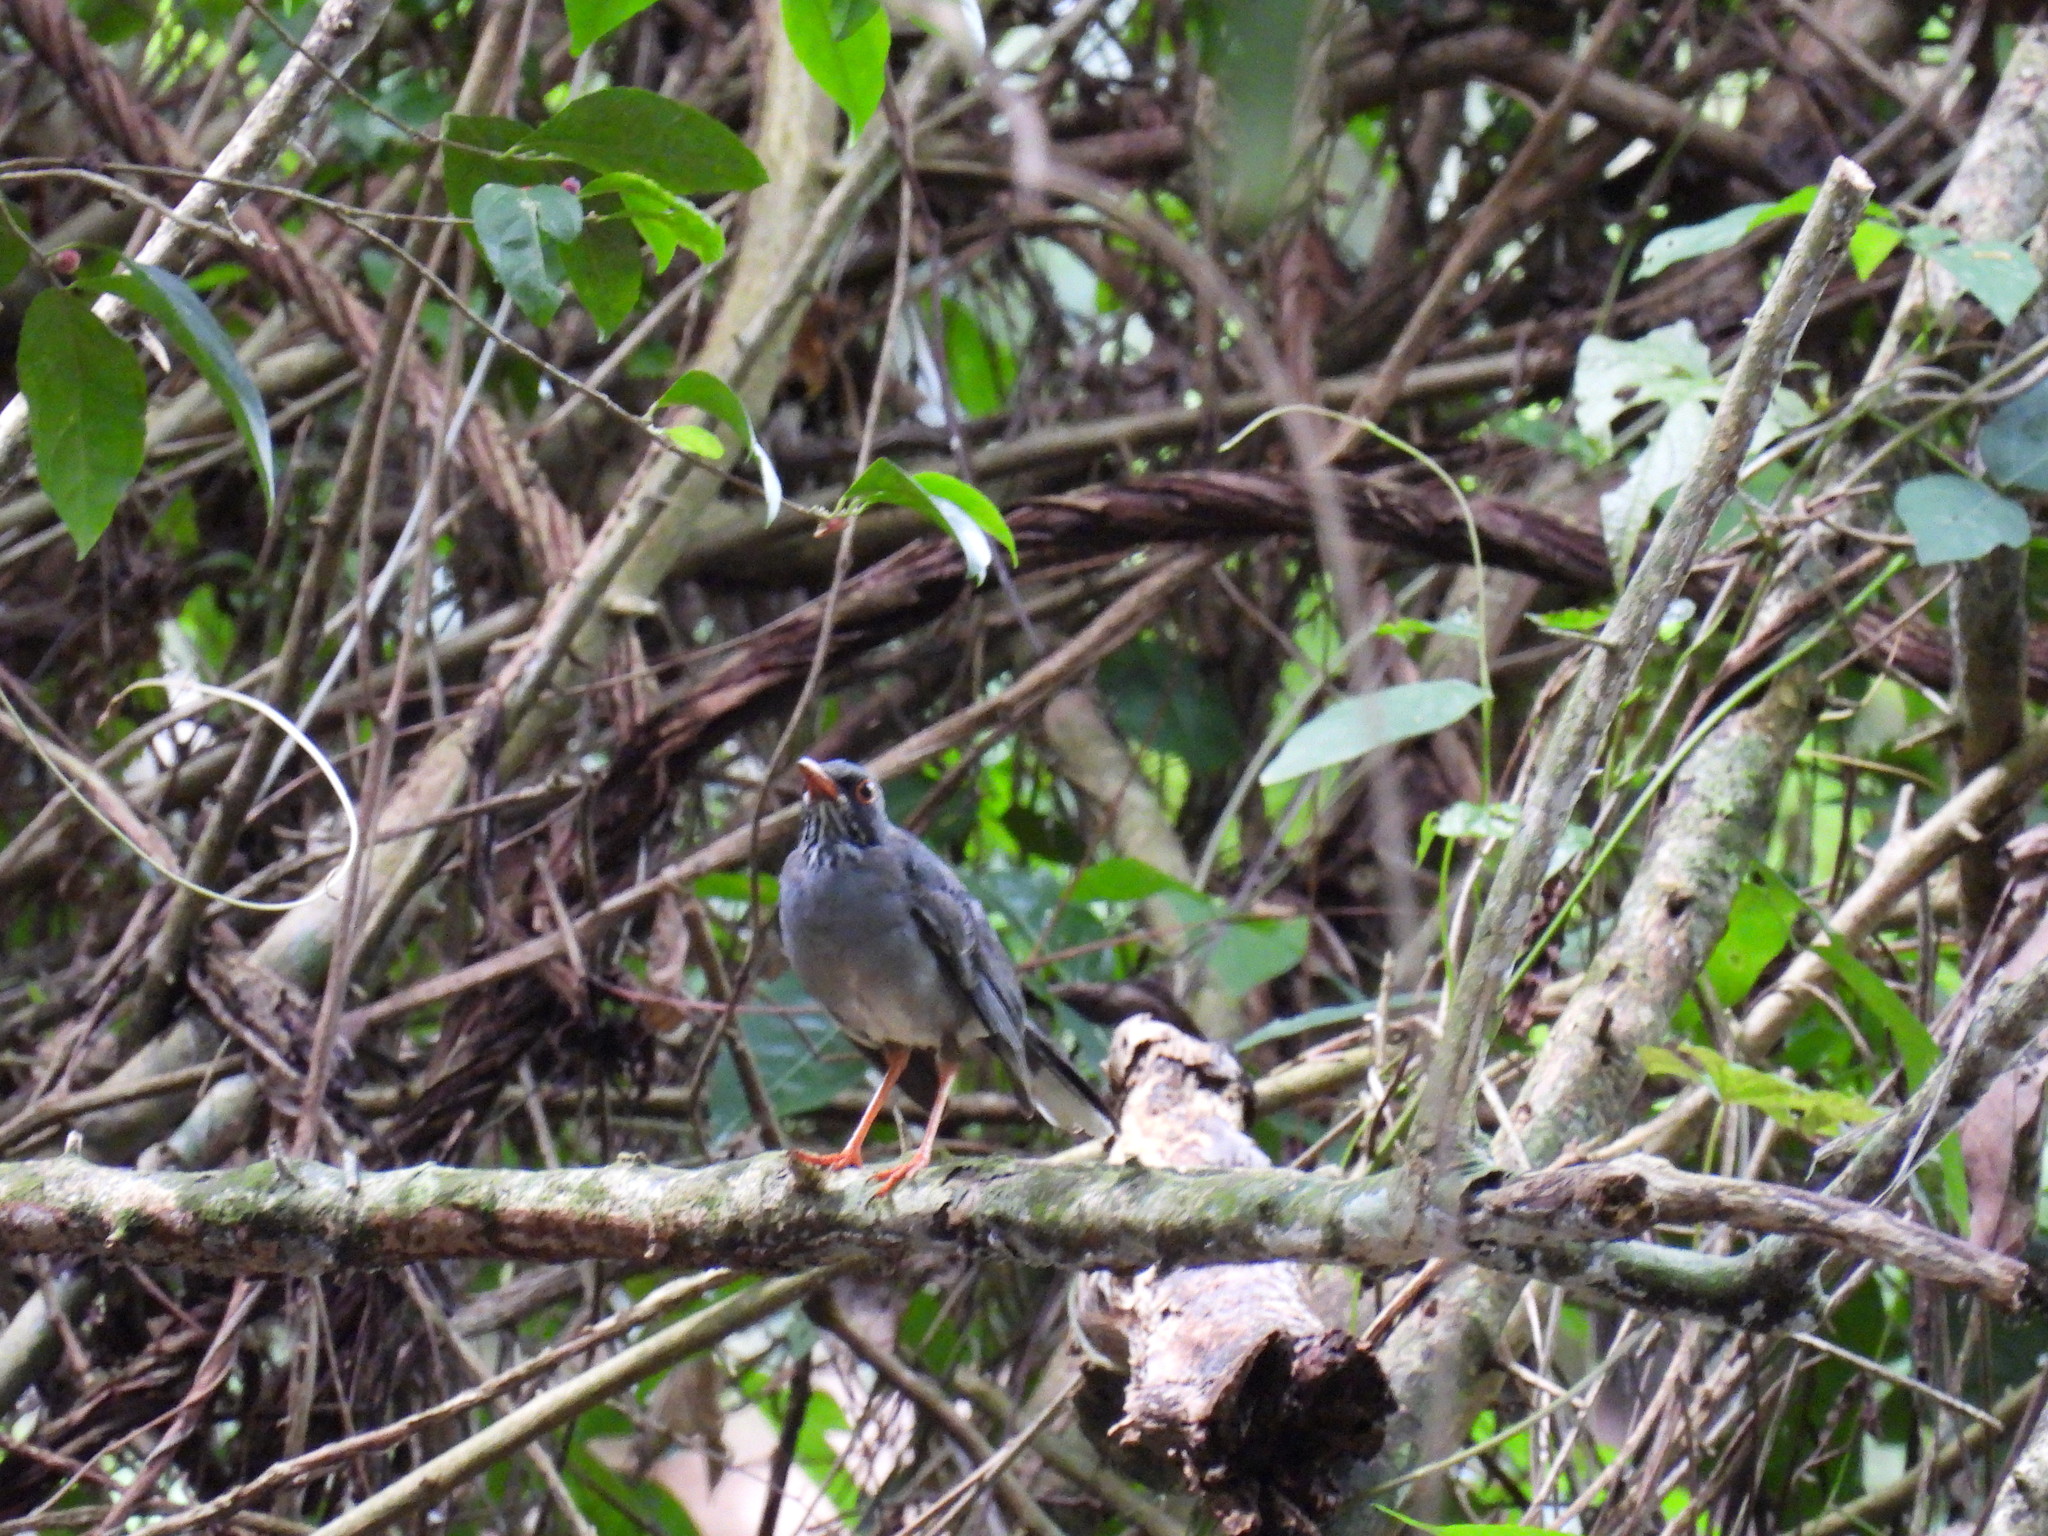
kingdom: Animalia
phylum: Chordata
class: Aves
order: Passeriformes
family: Turdidae
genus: Turdus
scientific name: Turdus plumbeus
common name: Red-legged thrush
